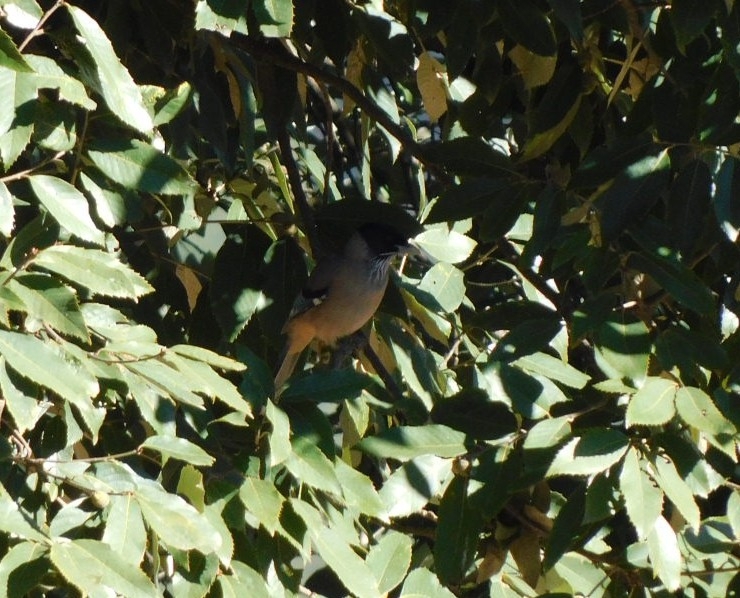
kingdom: Animalia
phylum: Chordata
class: Aves
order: Passeriformes
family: Corvidae
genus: Garrulus
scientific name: Garrulus lanceolatus
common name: Black-headed jay
